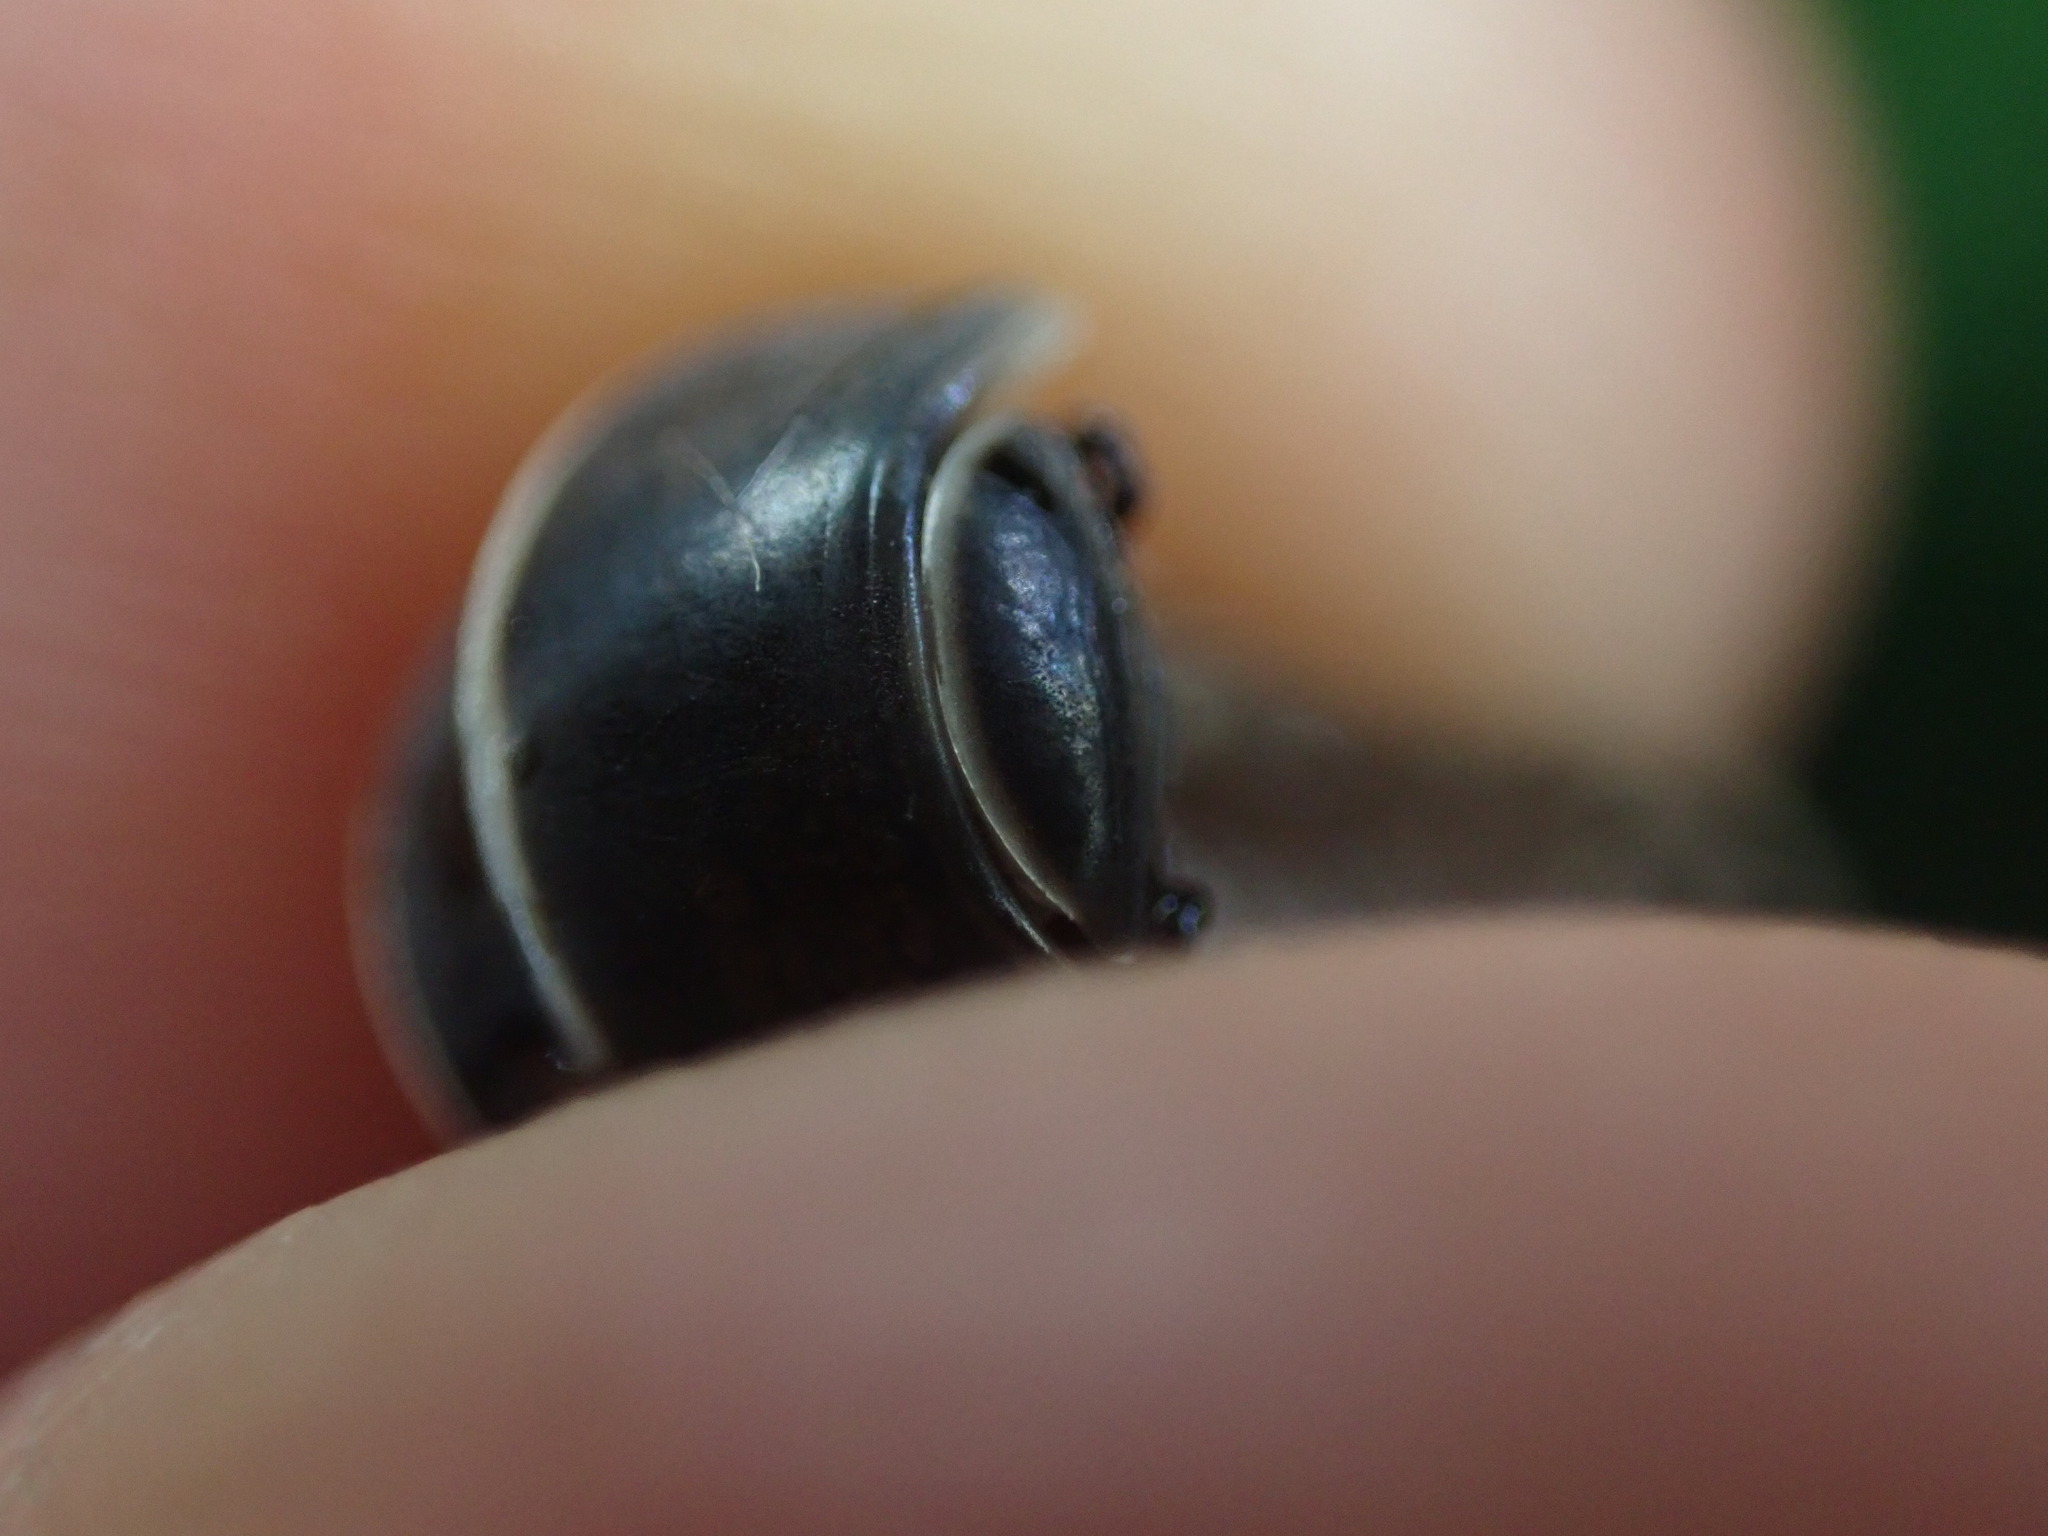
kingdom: Animalia
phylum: Arthropoda
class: Diplopoda
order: Glomerida
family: Glomeridae
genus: Glomeris
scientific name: Glomeris marginata
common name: Bordered pill millipede
